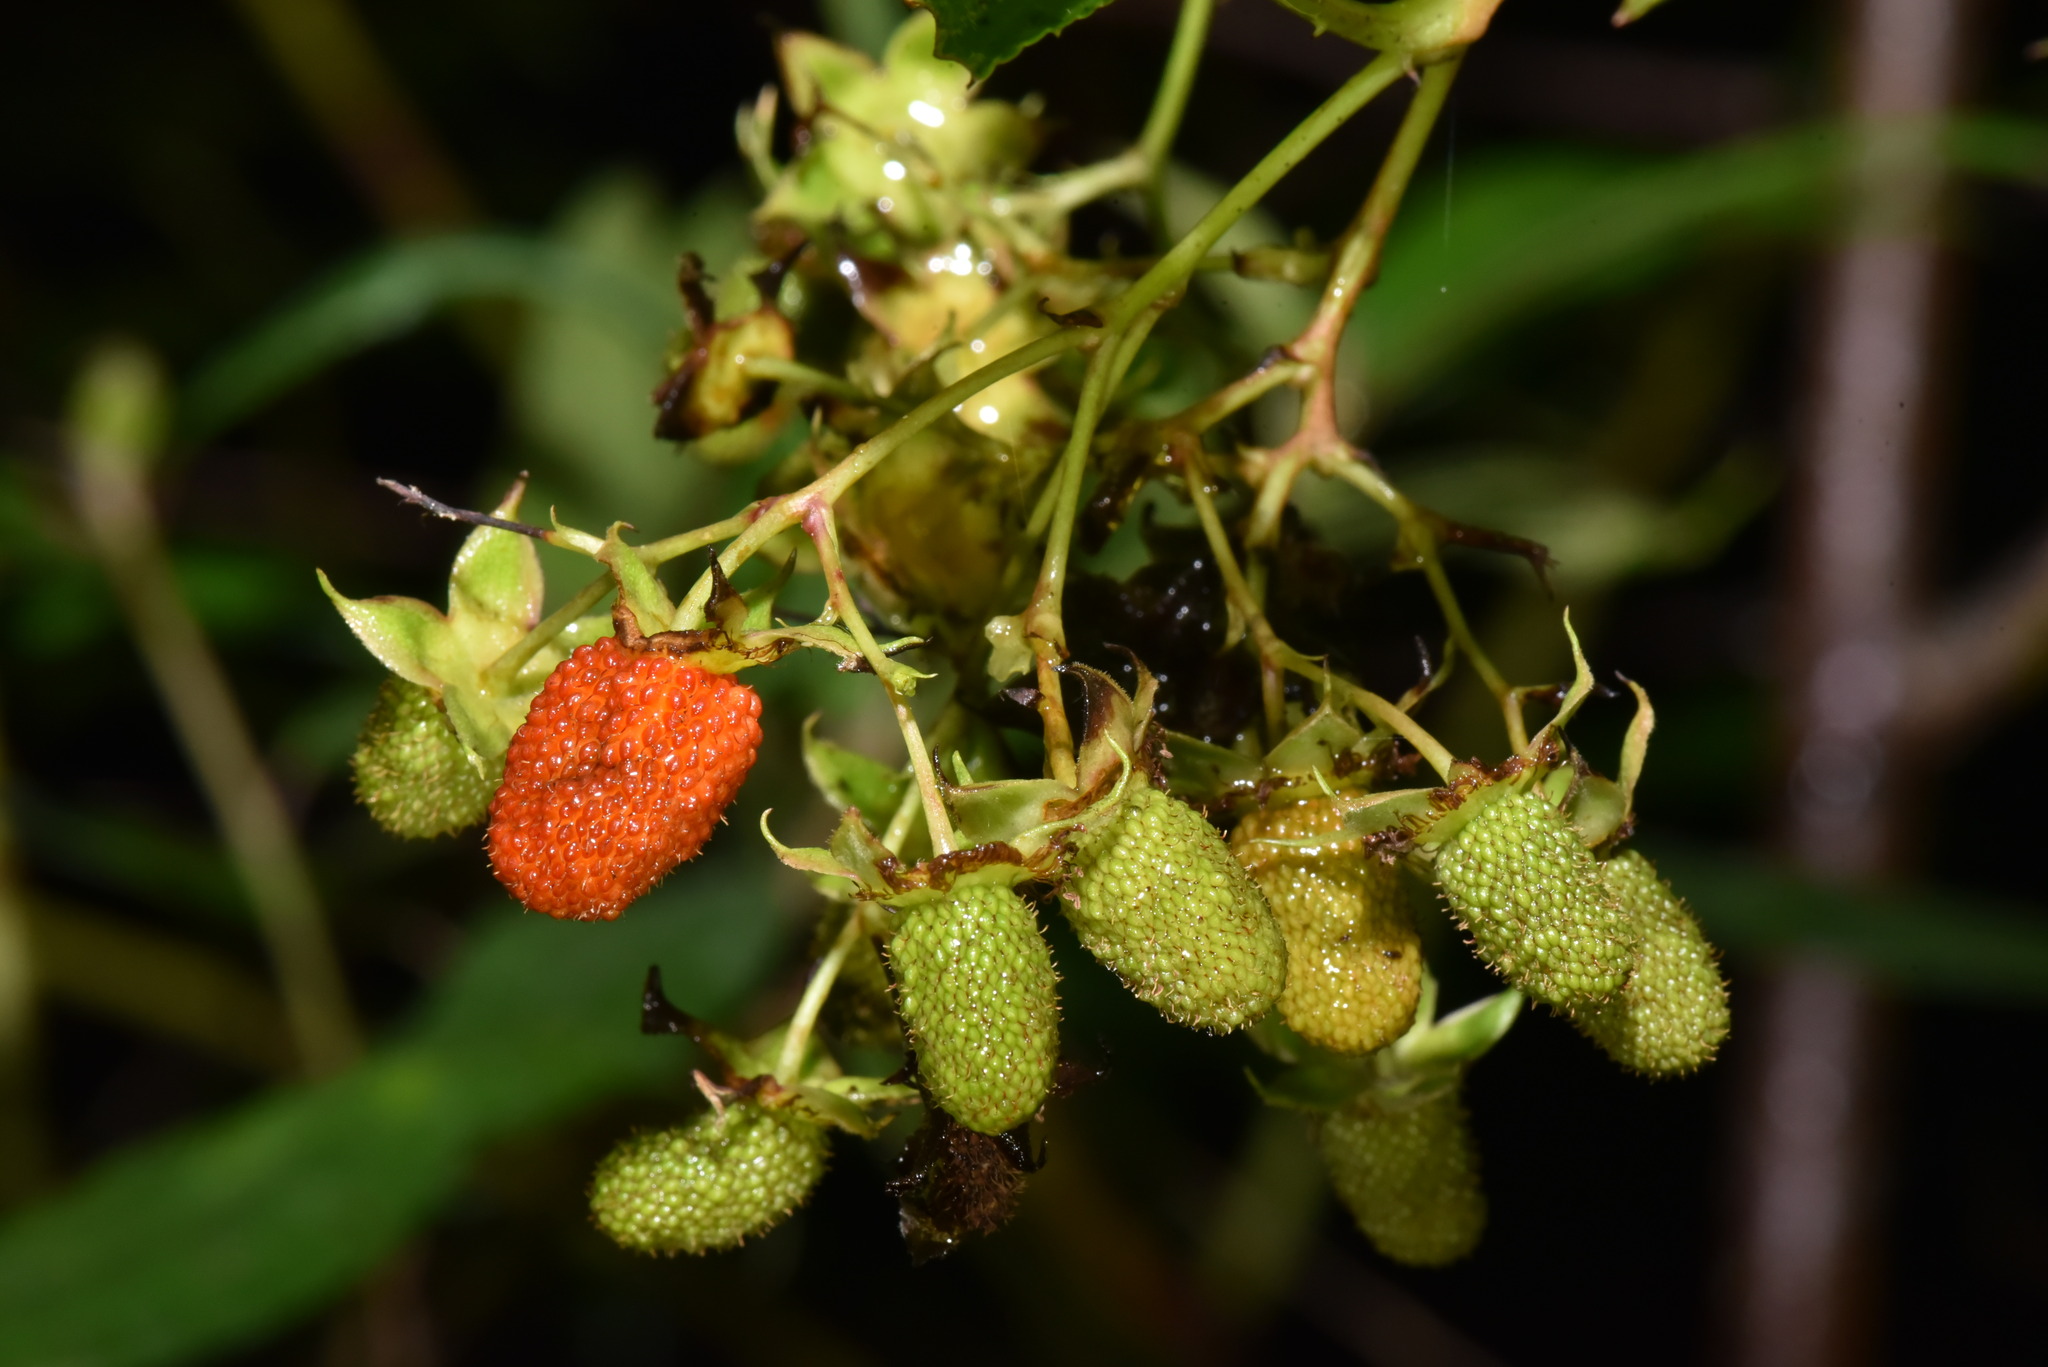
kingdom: Plantae
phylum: Tracheophyta
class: Magnoliopsida
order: Rosales
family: Rosaceae
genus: Rubus
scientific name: Rubus fraxinifolius
